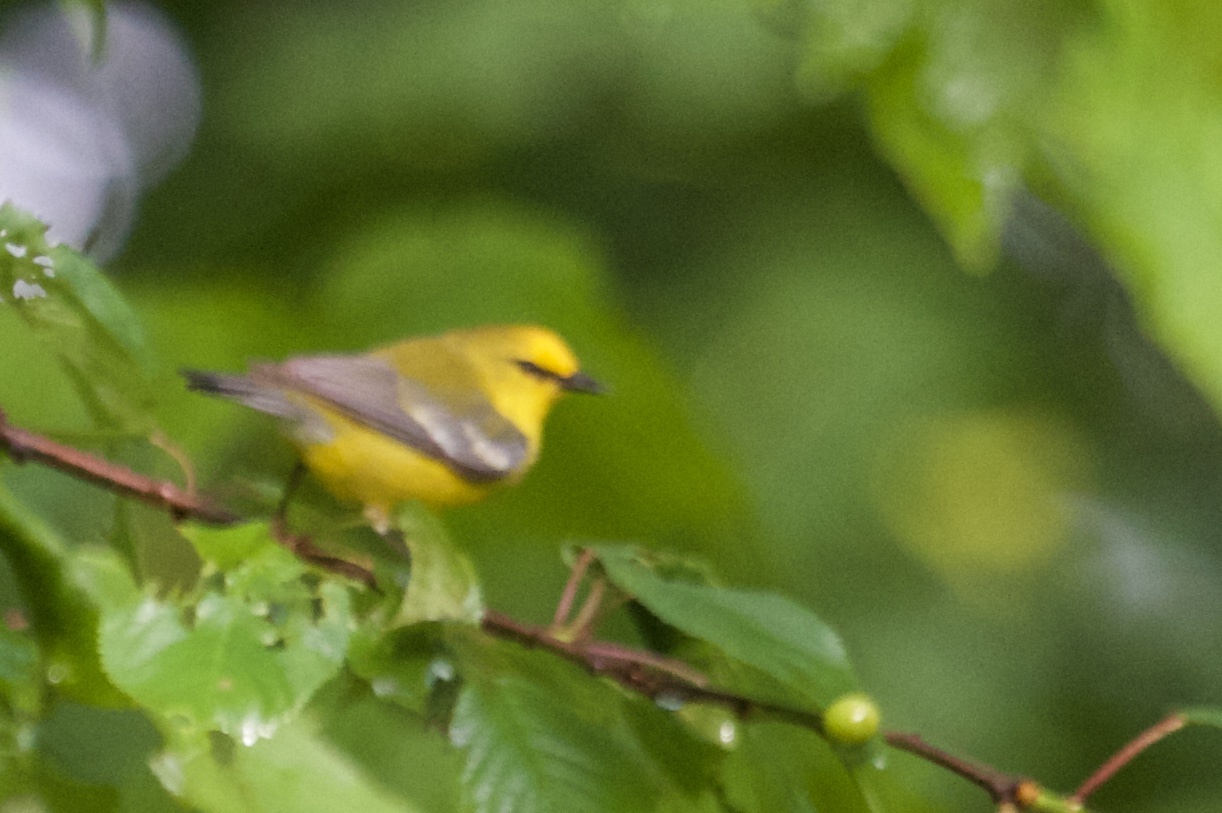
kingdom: Animalia
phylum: Chordata
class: Aves
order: Passeriformes
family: Parulidae
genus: Vermivora
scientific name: Vermivora cyanoptera
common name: Blue-winged warbler
